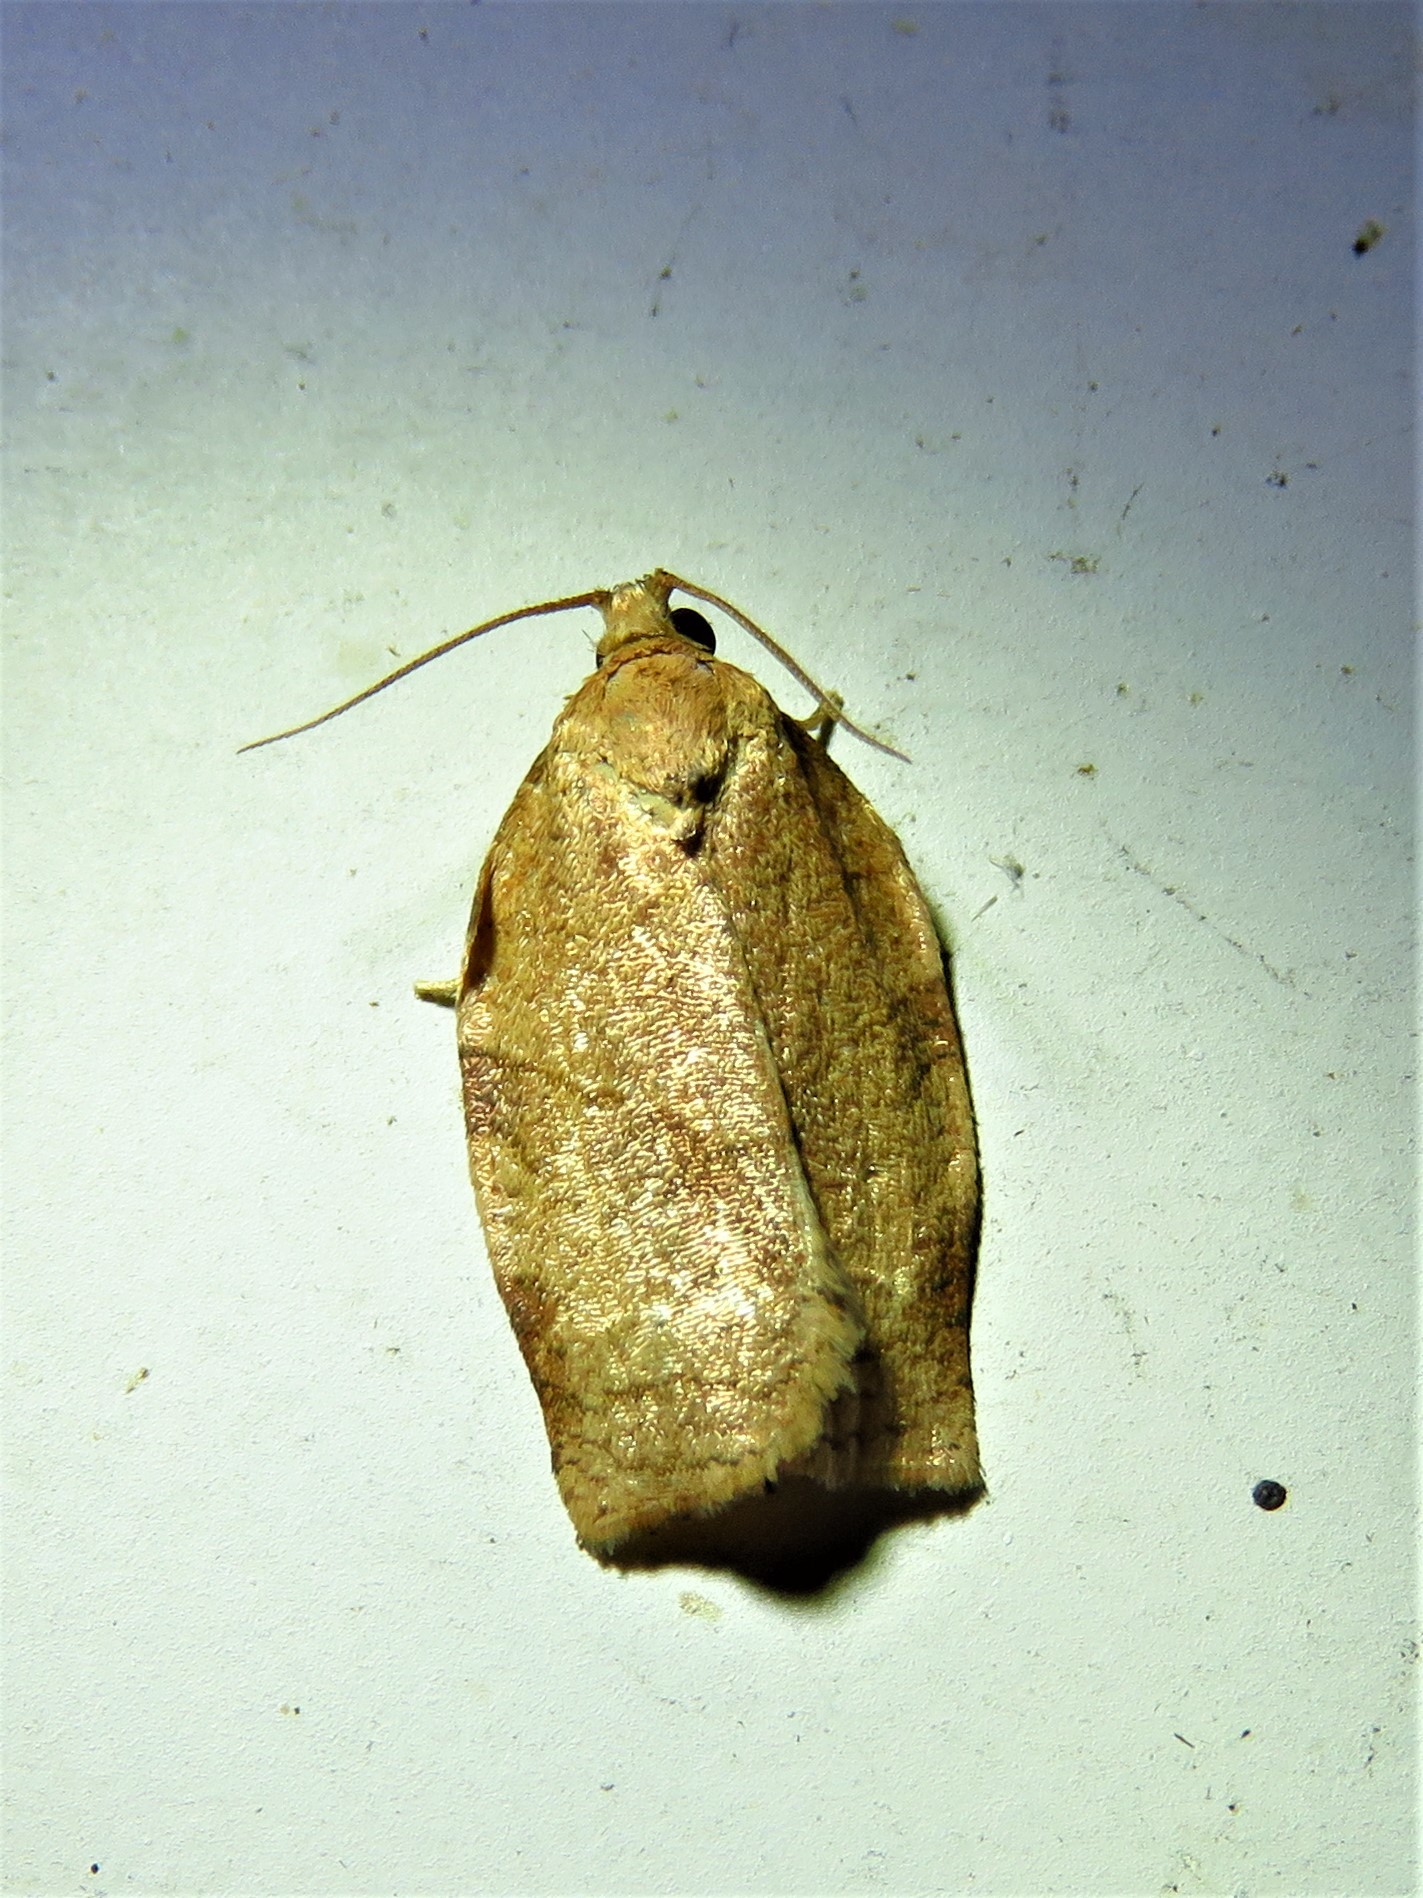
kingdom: Animalia
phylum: Arthropoda
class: Insecta
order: Lepidoptera
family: Tortricidae
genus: Choristoneura
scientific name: Choristoneura rosaceana
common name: Oblique-banded leafroller moth
